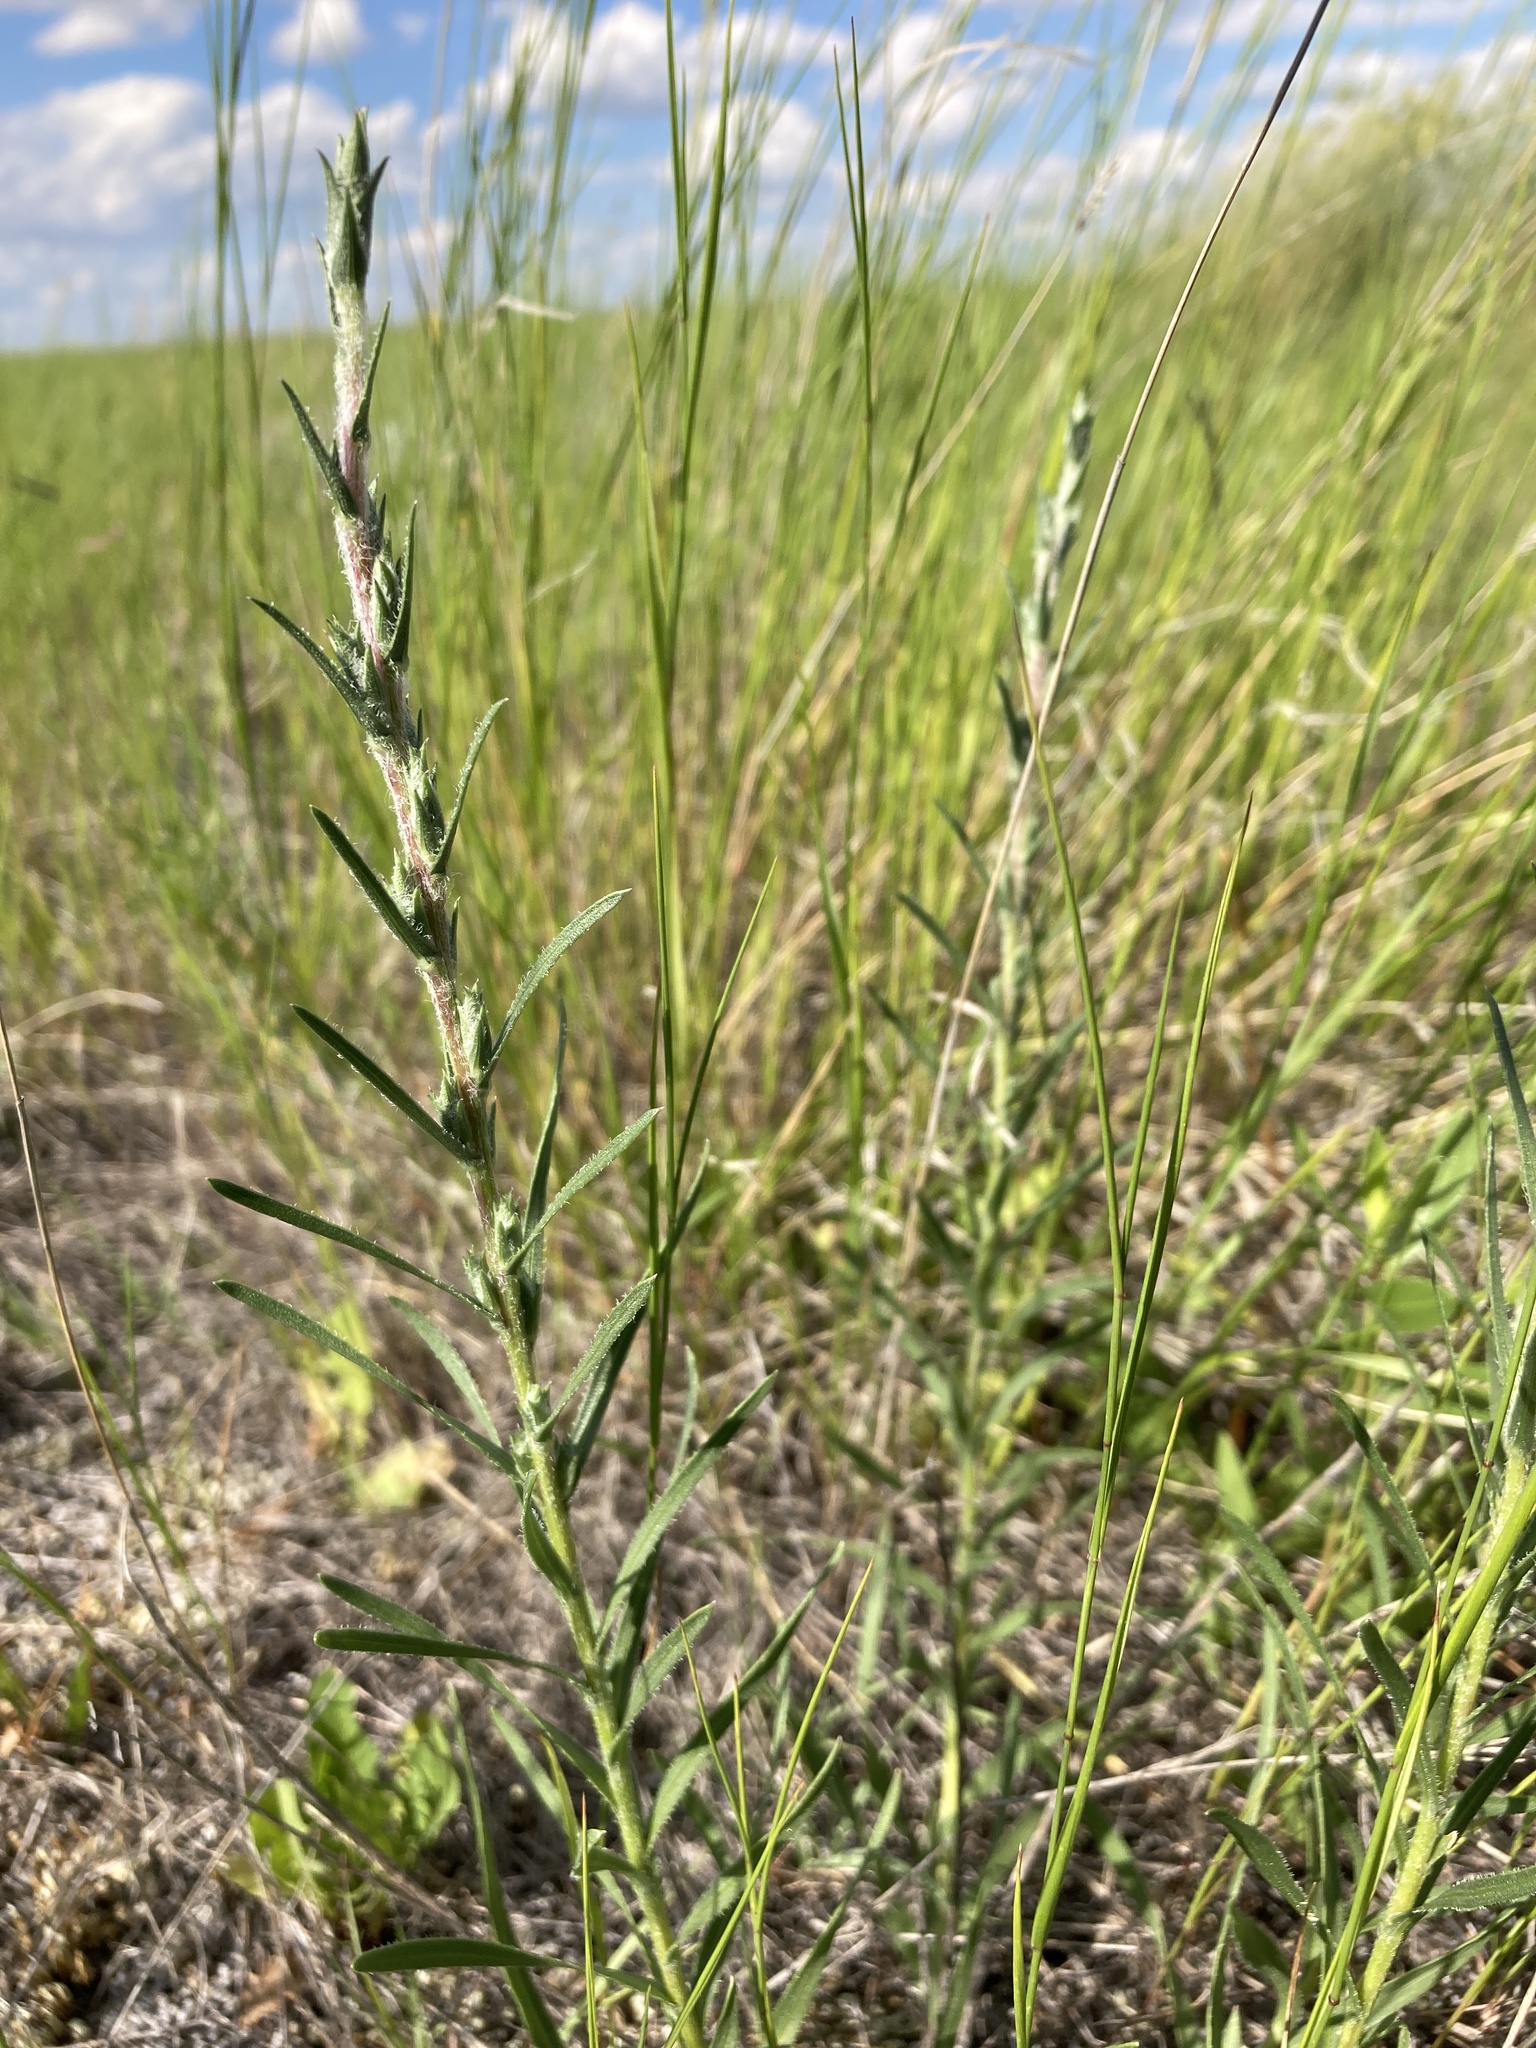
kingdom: Plantae
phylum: Tracheophyta
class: Magnoliopsida
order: Asterales
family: Asteraceae
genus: Liatris
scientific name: Liatris punctata
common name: Dotted gayfeather
